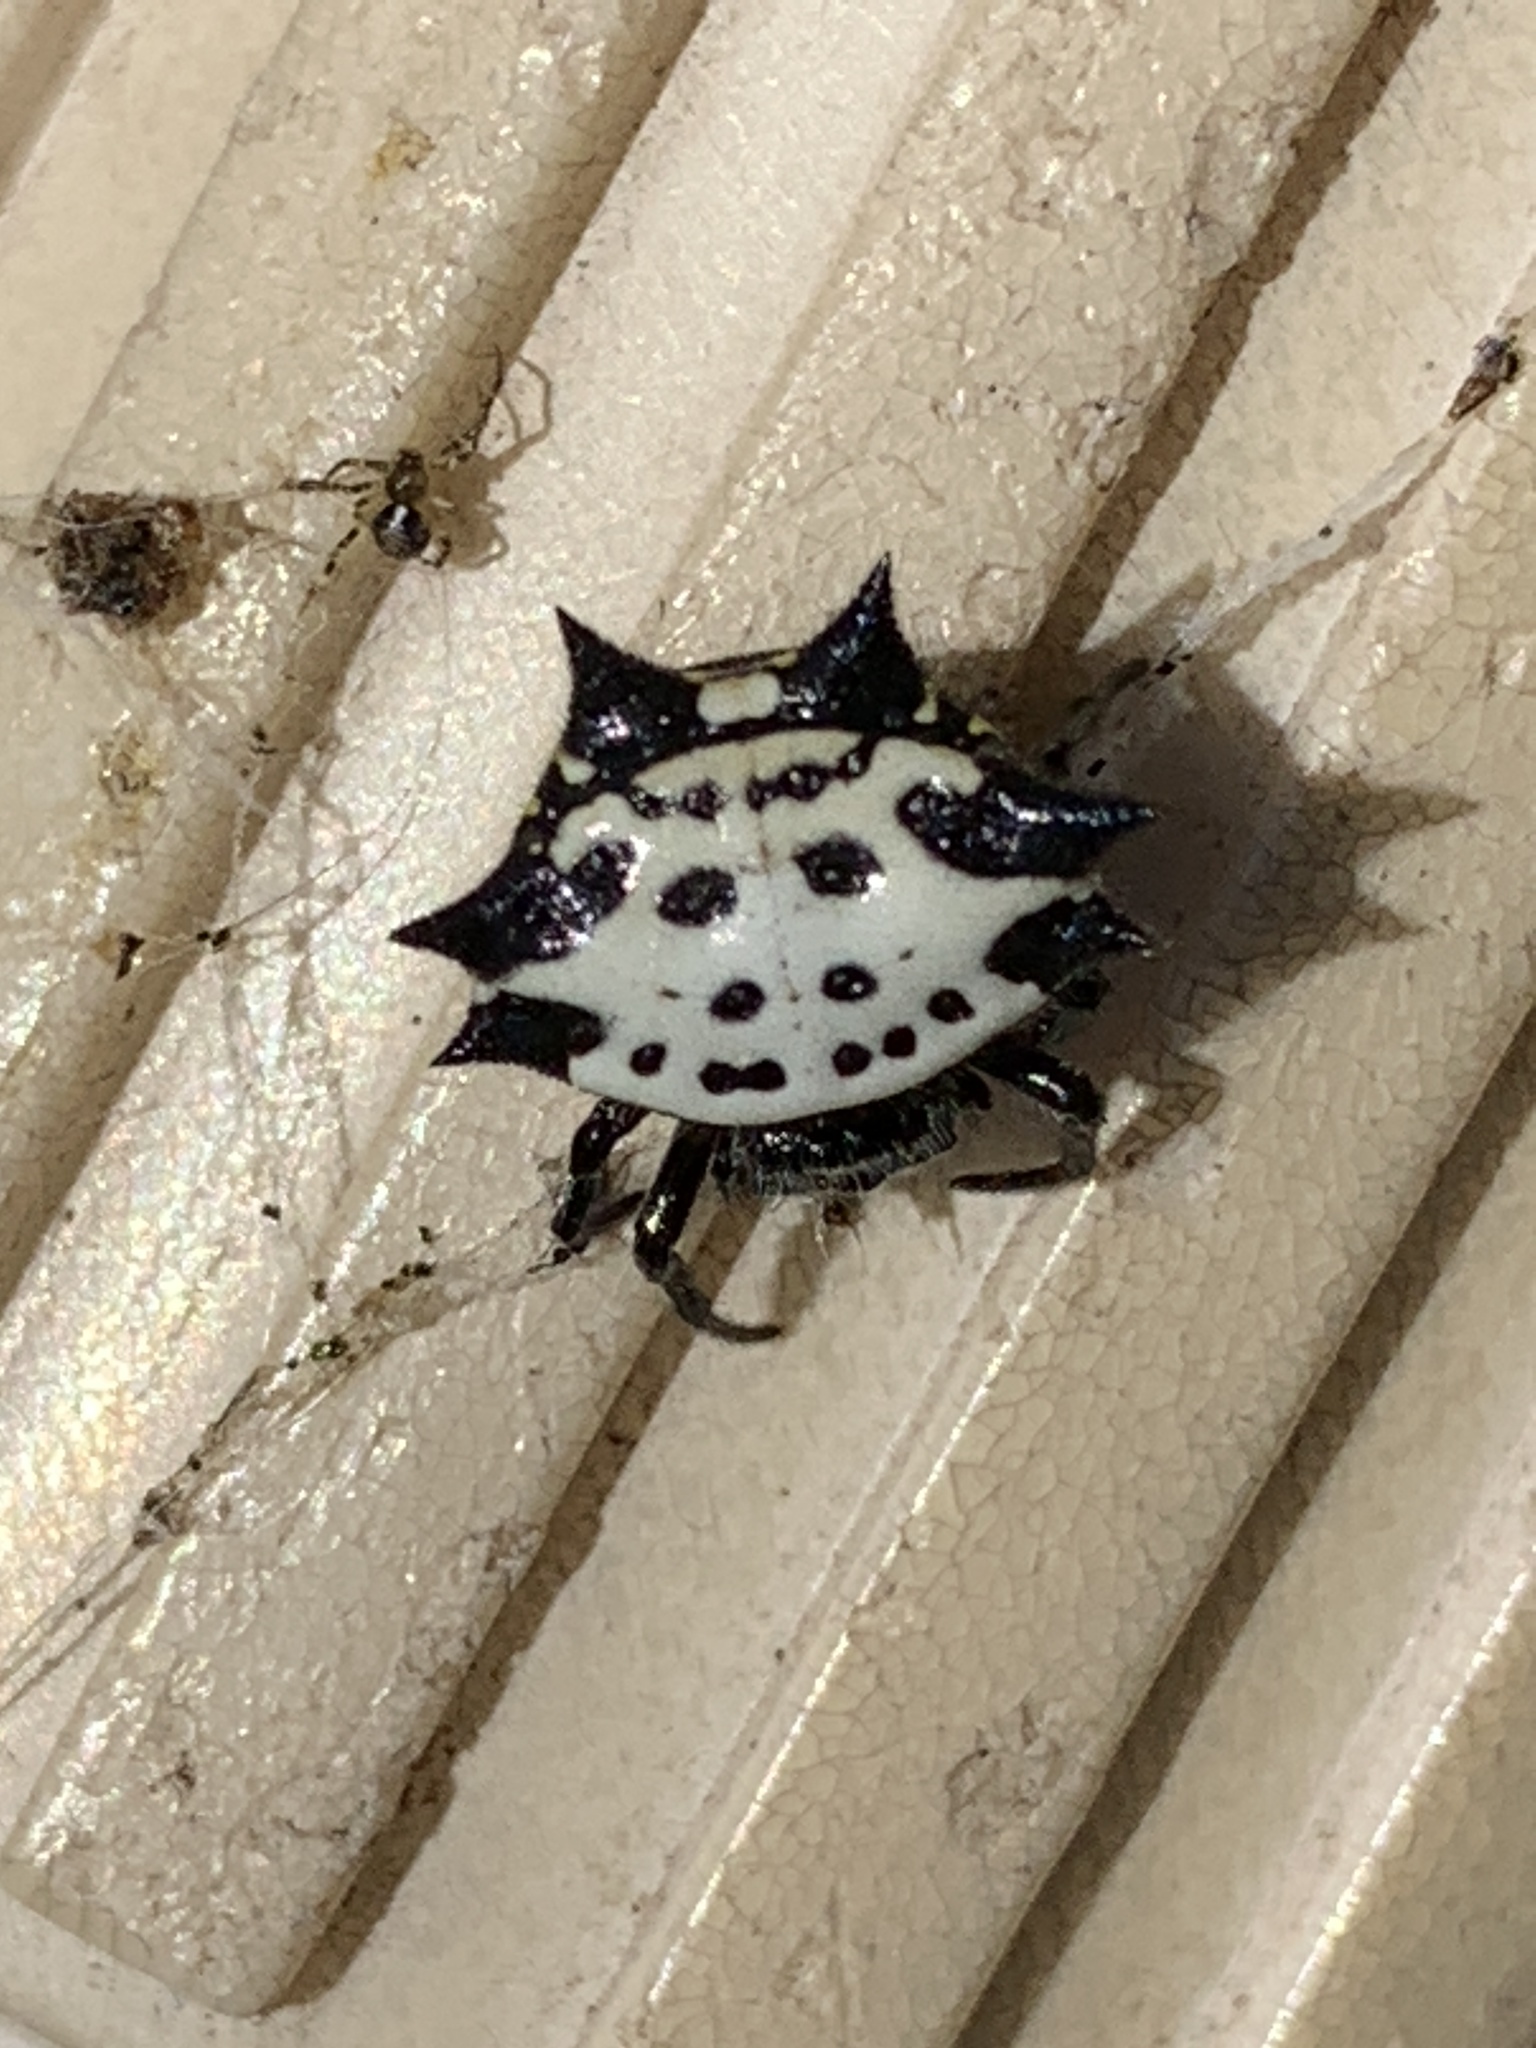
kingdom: Animalia
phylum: Arthropoda
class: Arachnida
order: Araneae
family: Araneidae
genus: Gasteracantha
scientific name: Gasteracantha cancriformis
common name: Orb weavers
